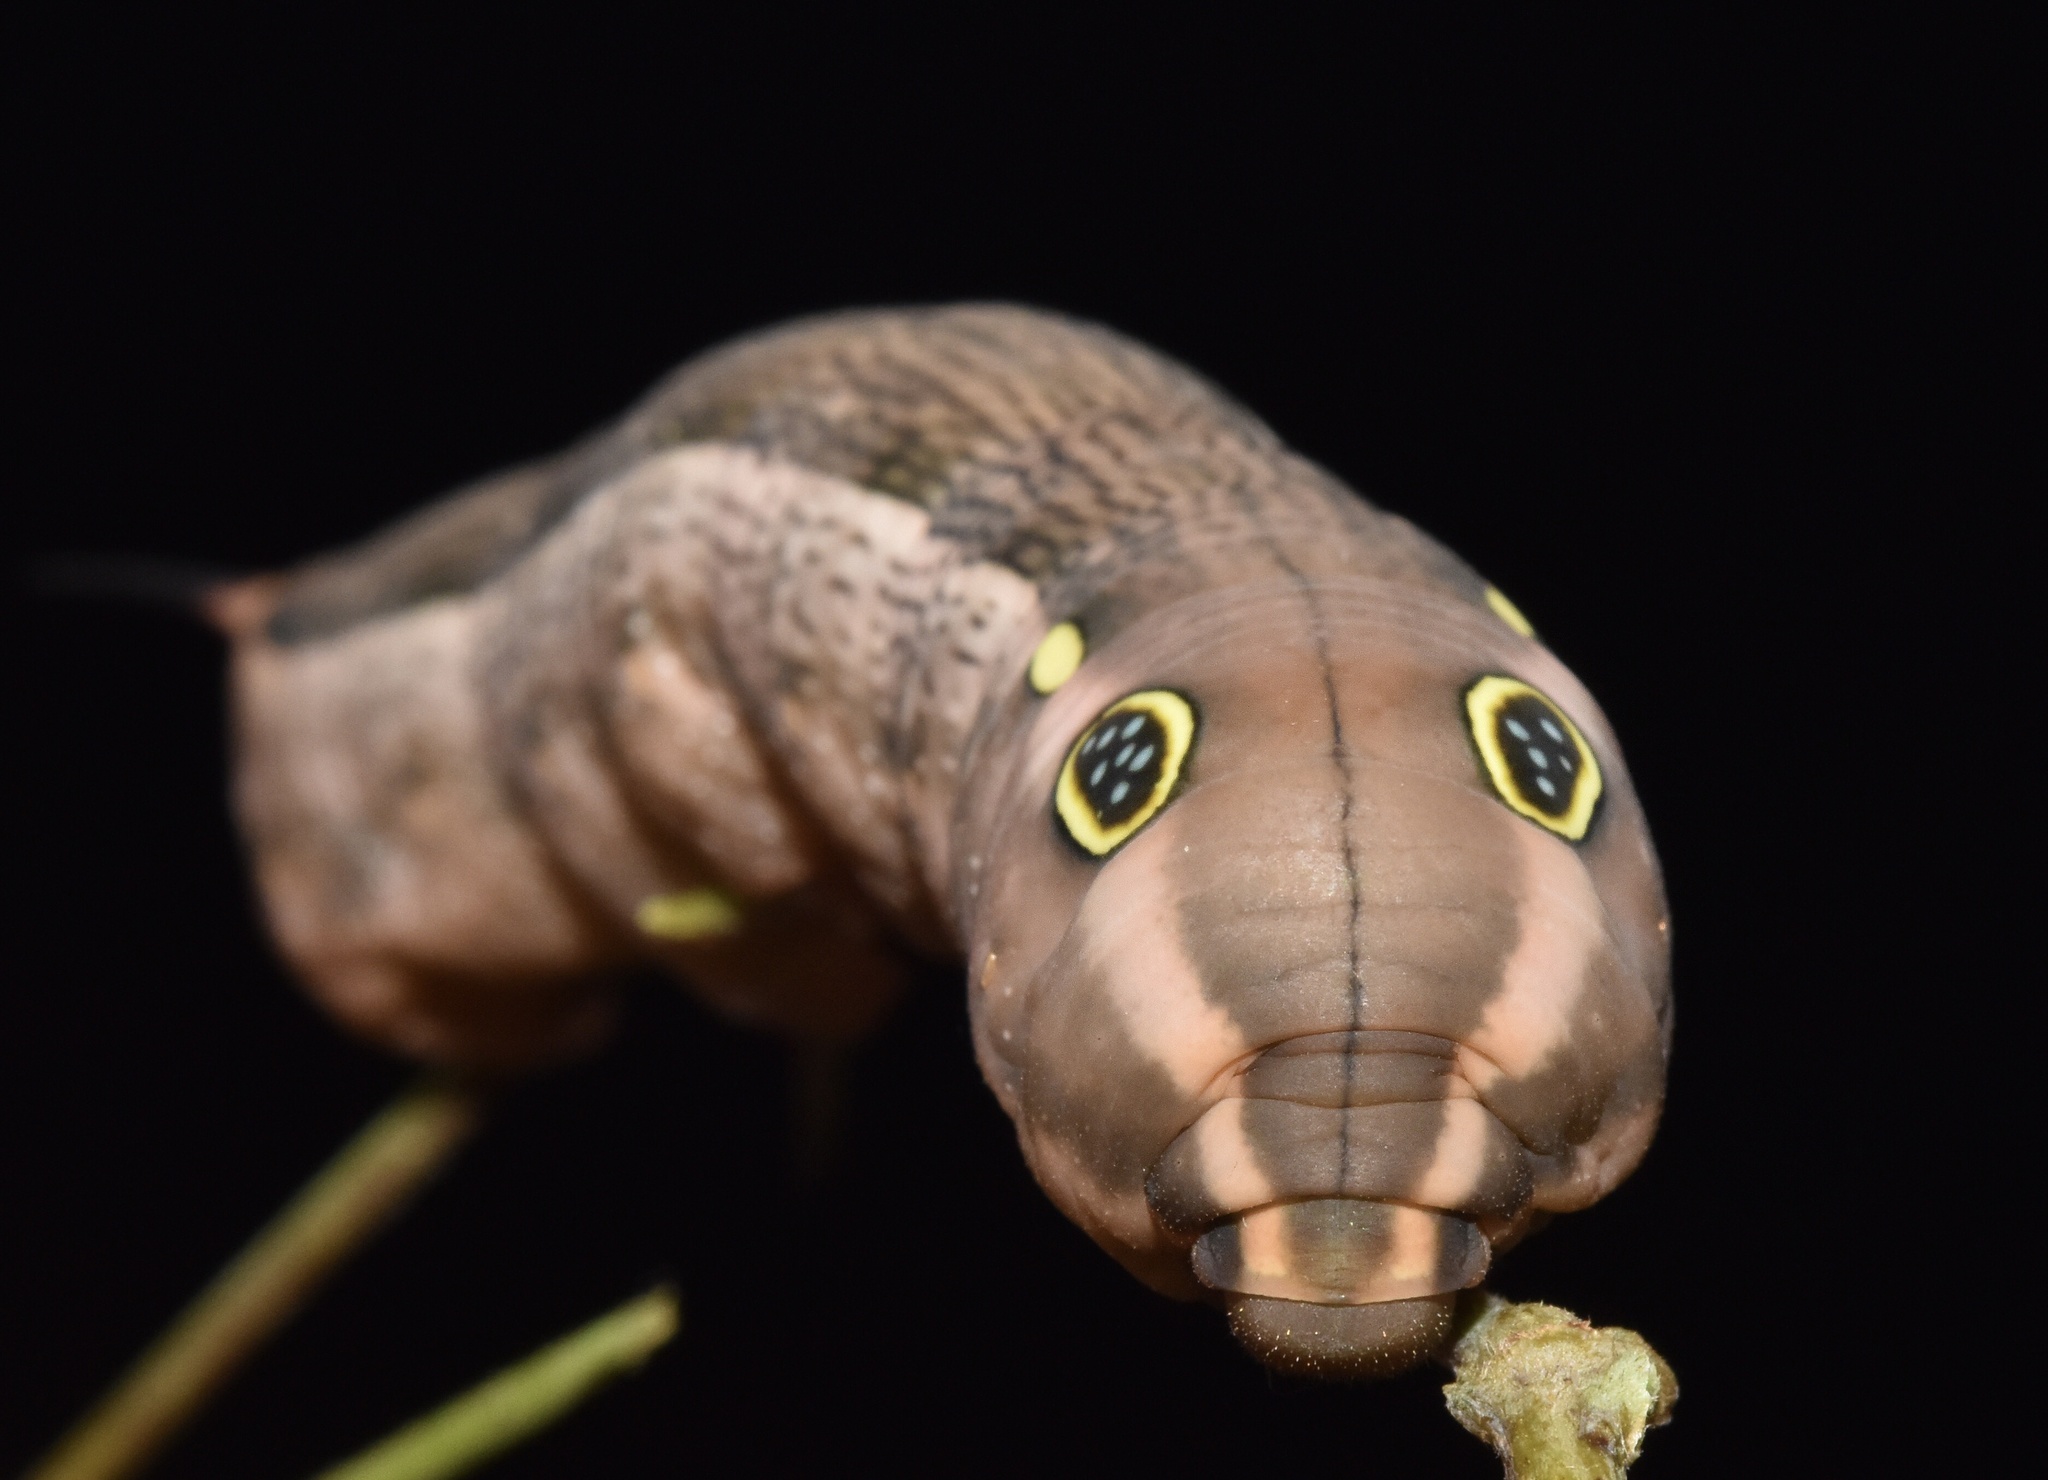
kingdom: Animalia
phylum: Arthropoda
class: Insecta
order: Lepidoptera
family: Sphingidae
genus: Hippotion
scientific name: Hippotion celerio
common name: Silver-striped hawk-moth
